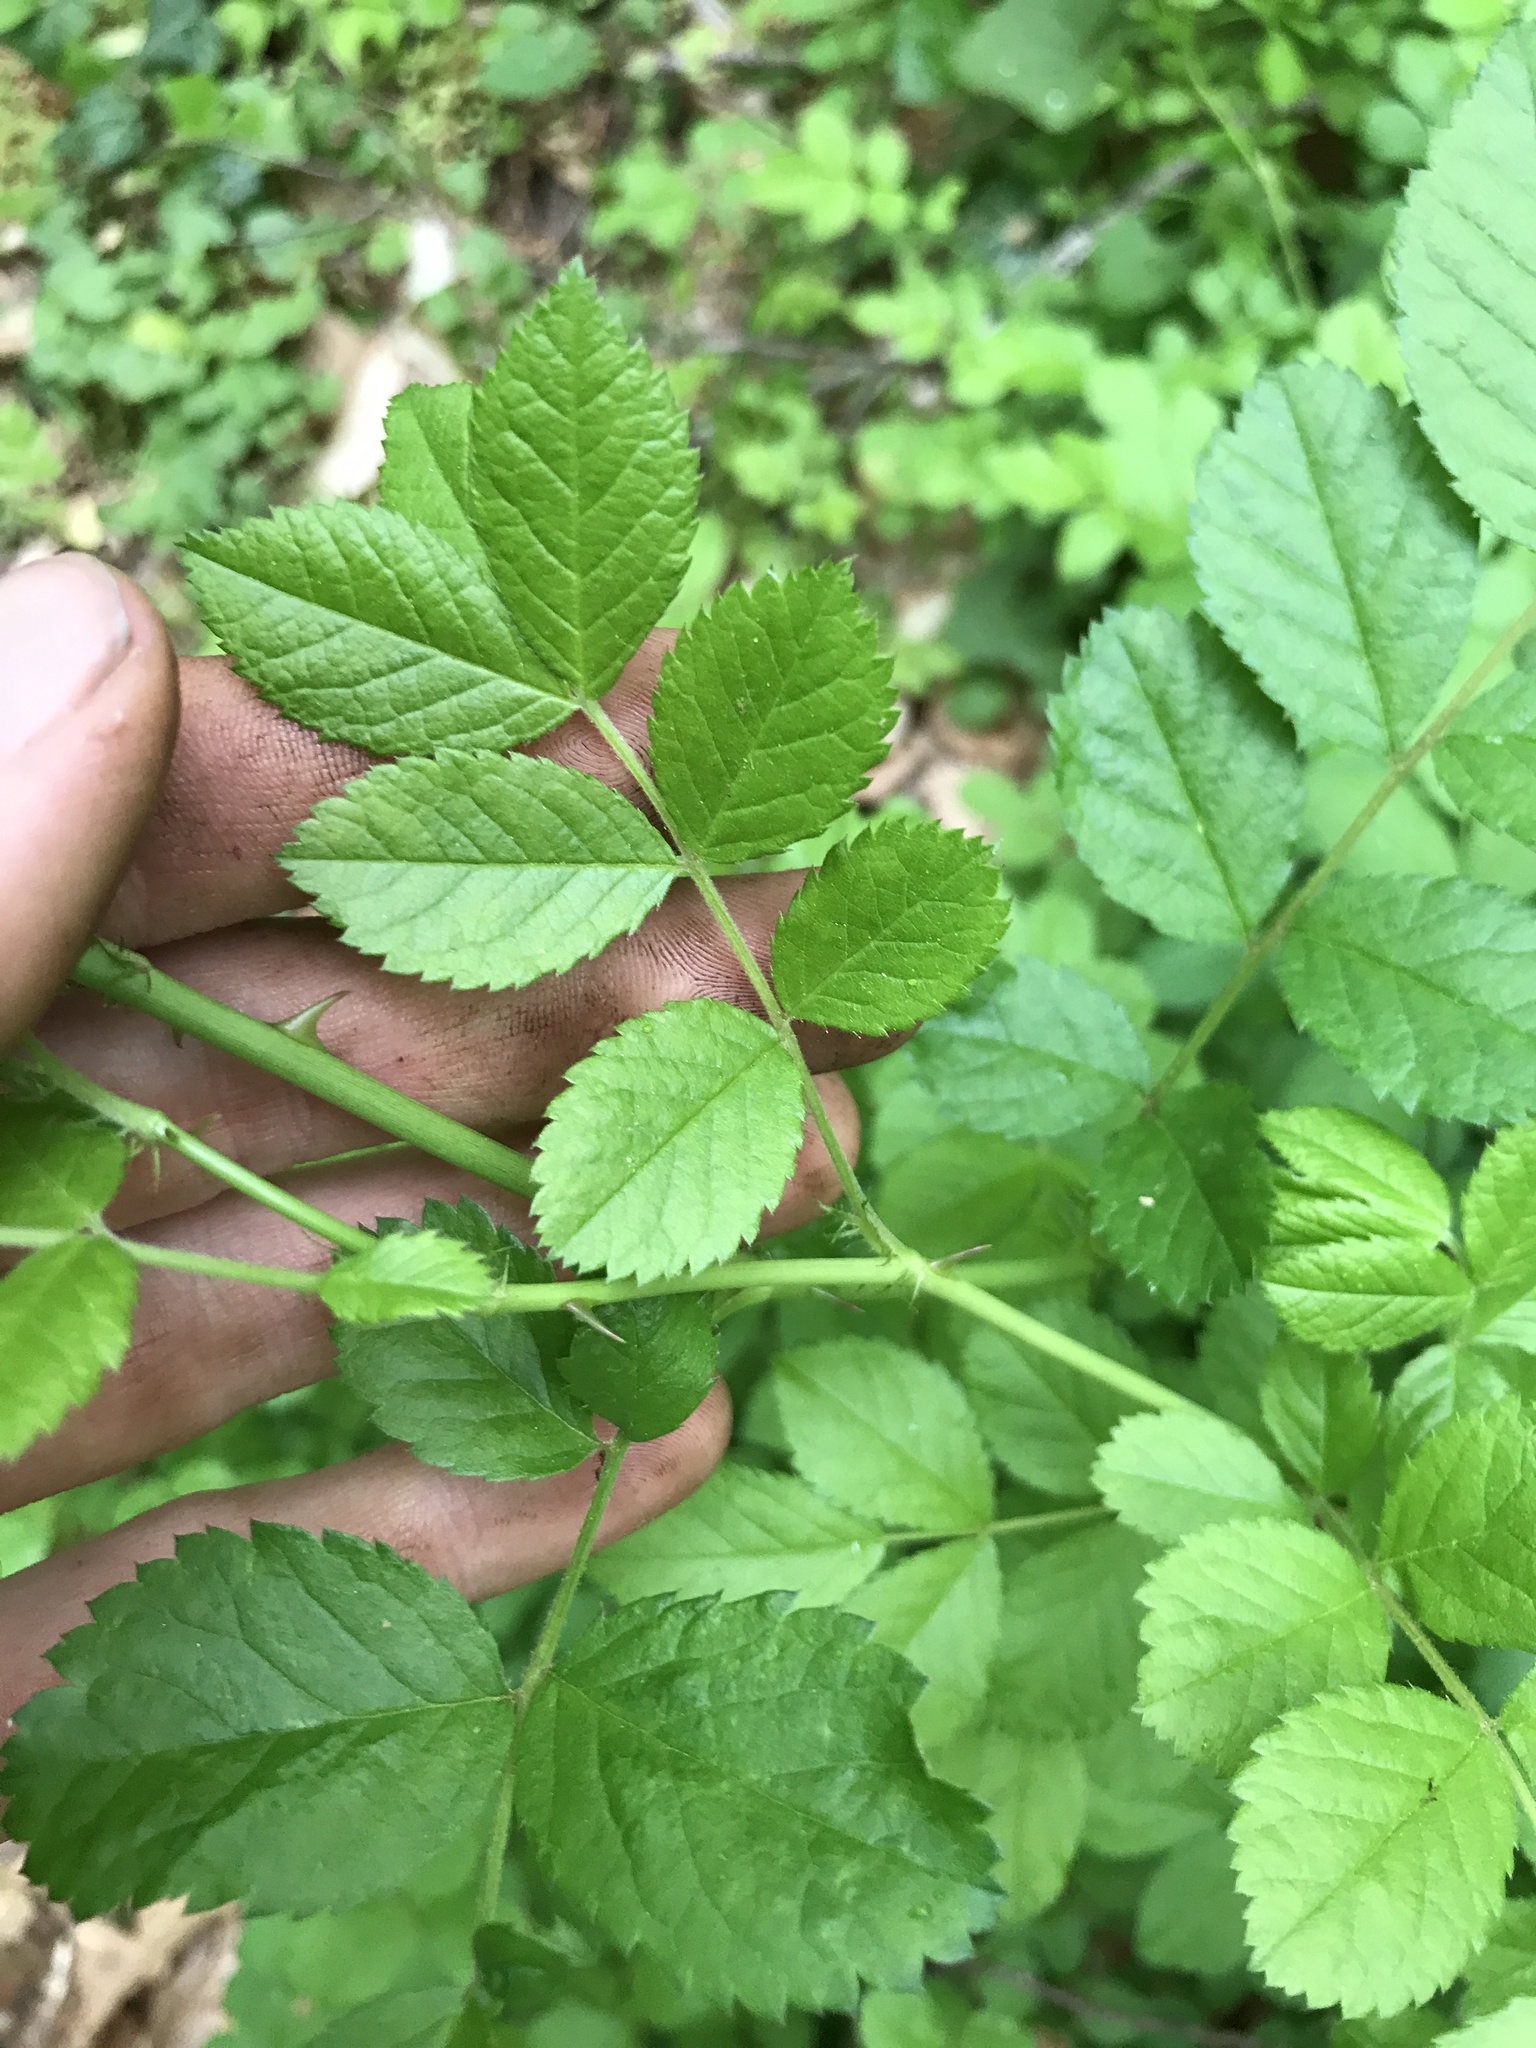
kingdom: Plantae
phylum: Tracheophyta
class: Magnoliopsida
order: Rosales
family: Rosaceae
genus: Rosa
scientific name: Rosa multiflora
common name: Multiflora rose
